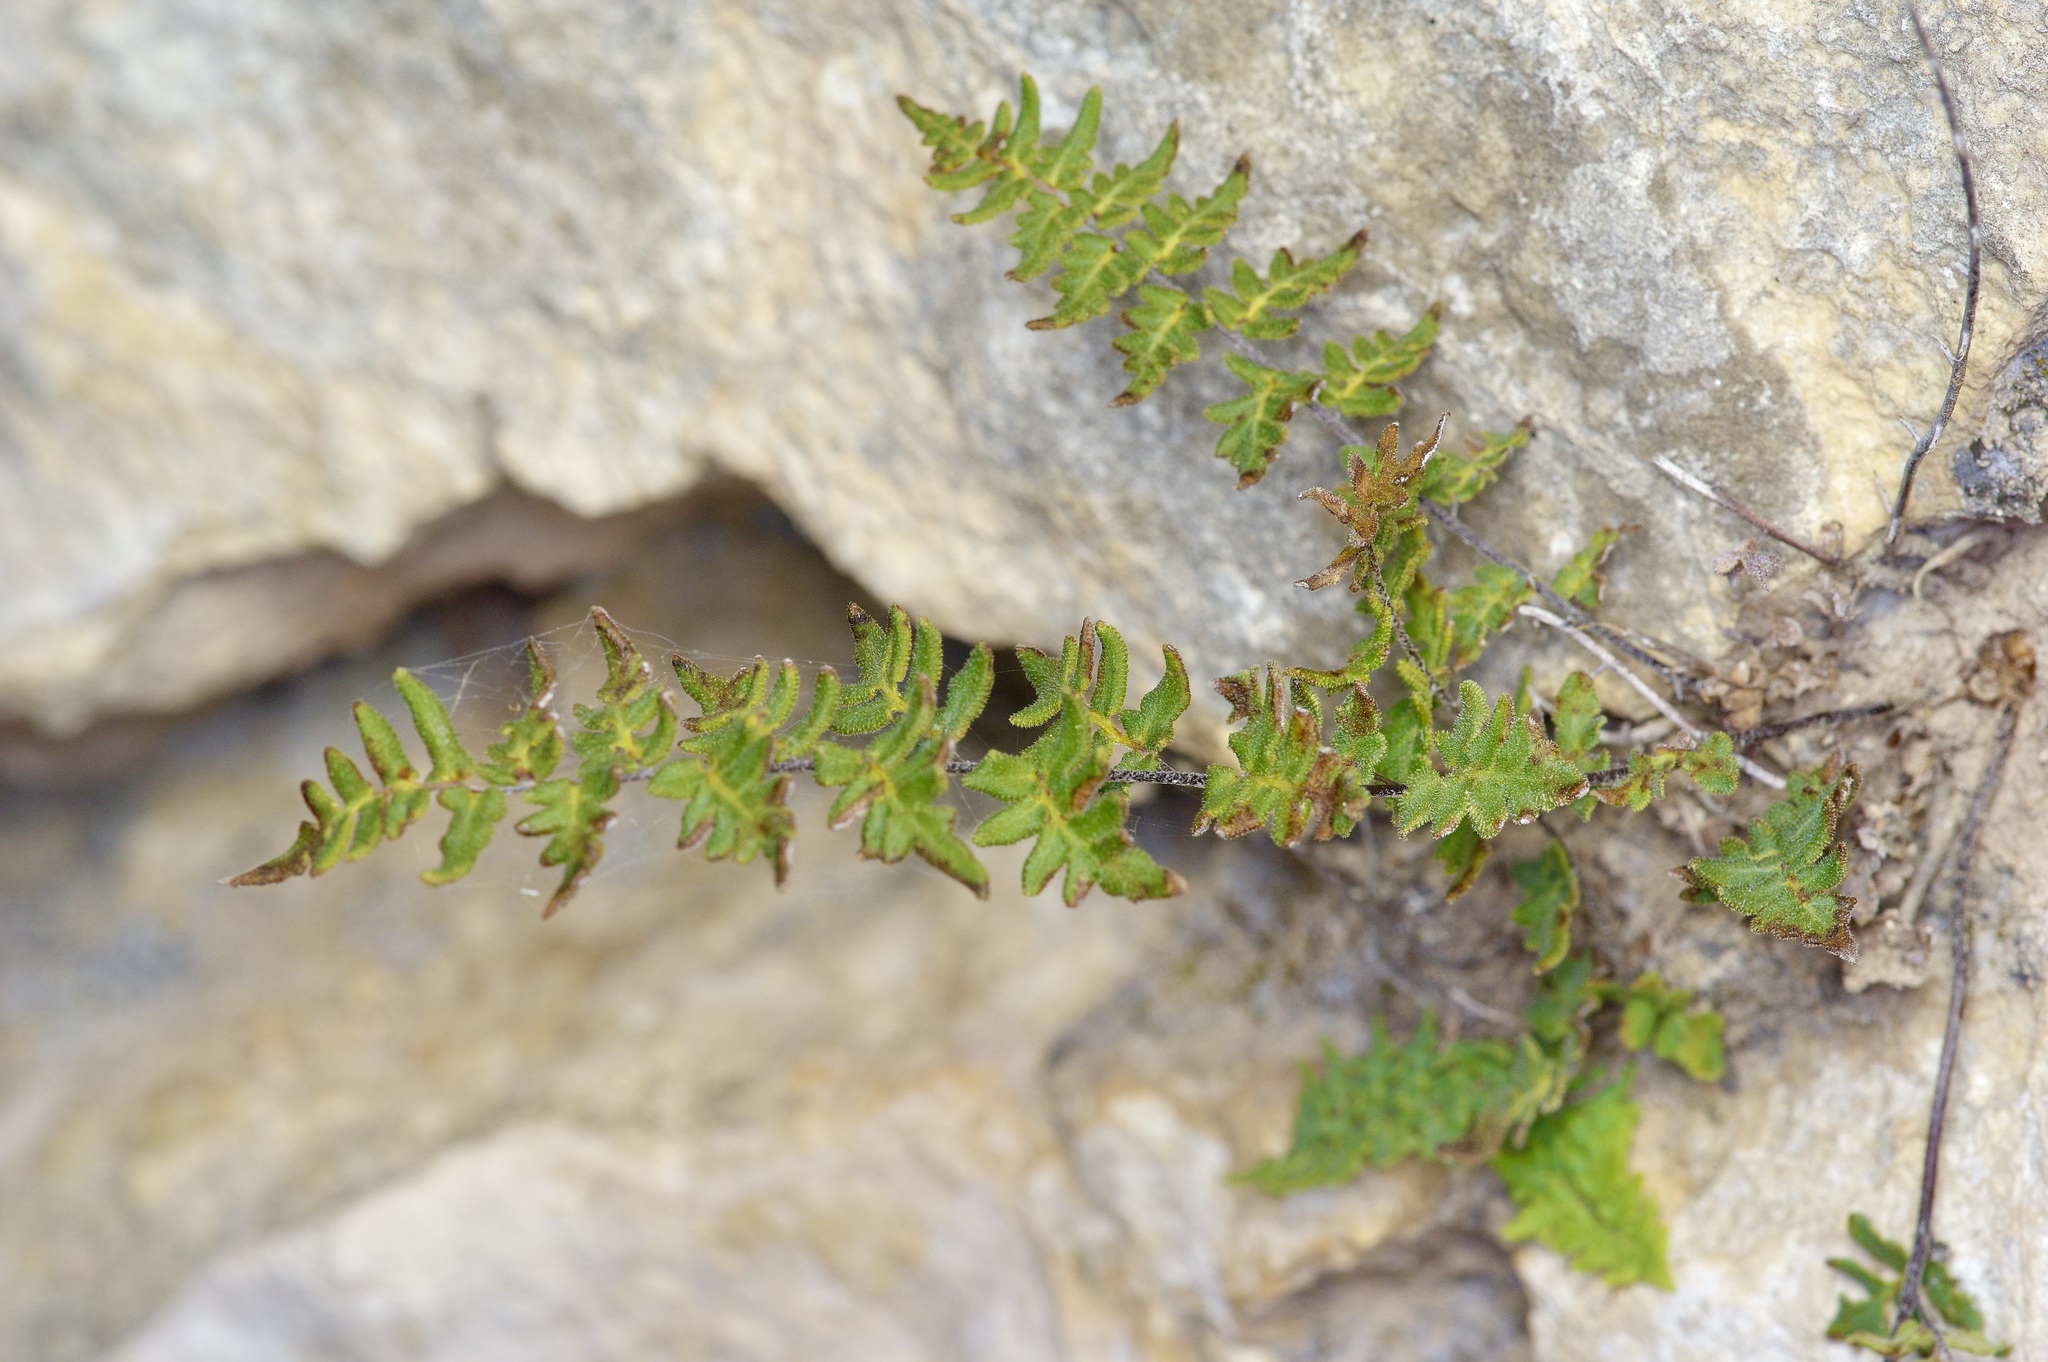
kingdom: Plantae
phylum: Tracheophyta
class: Polypodiopsida
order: Polypodiales
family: Pteridaceae
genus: Myriopteris
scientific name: Myriopteris scabra
